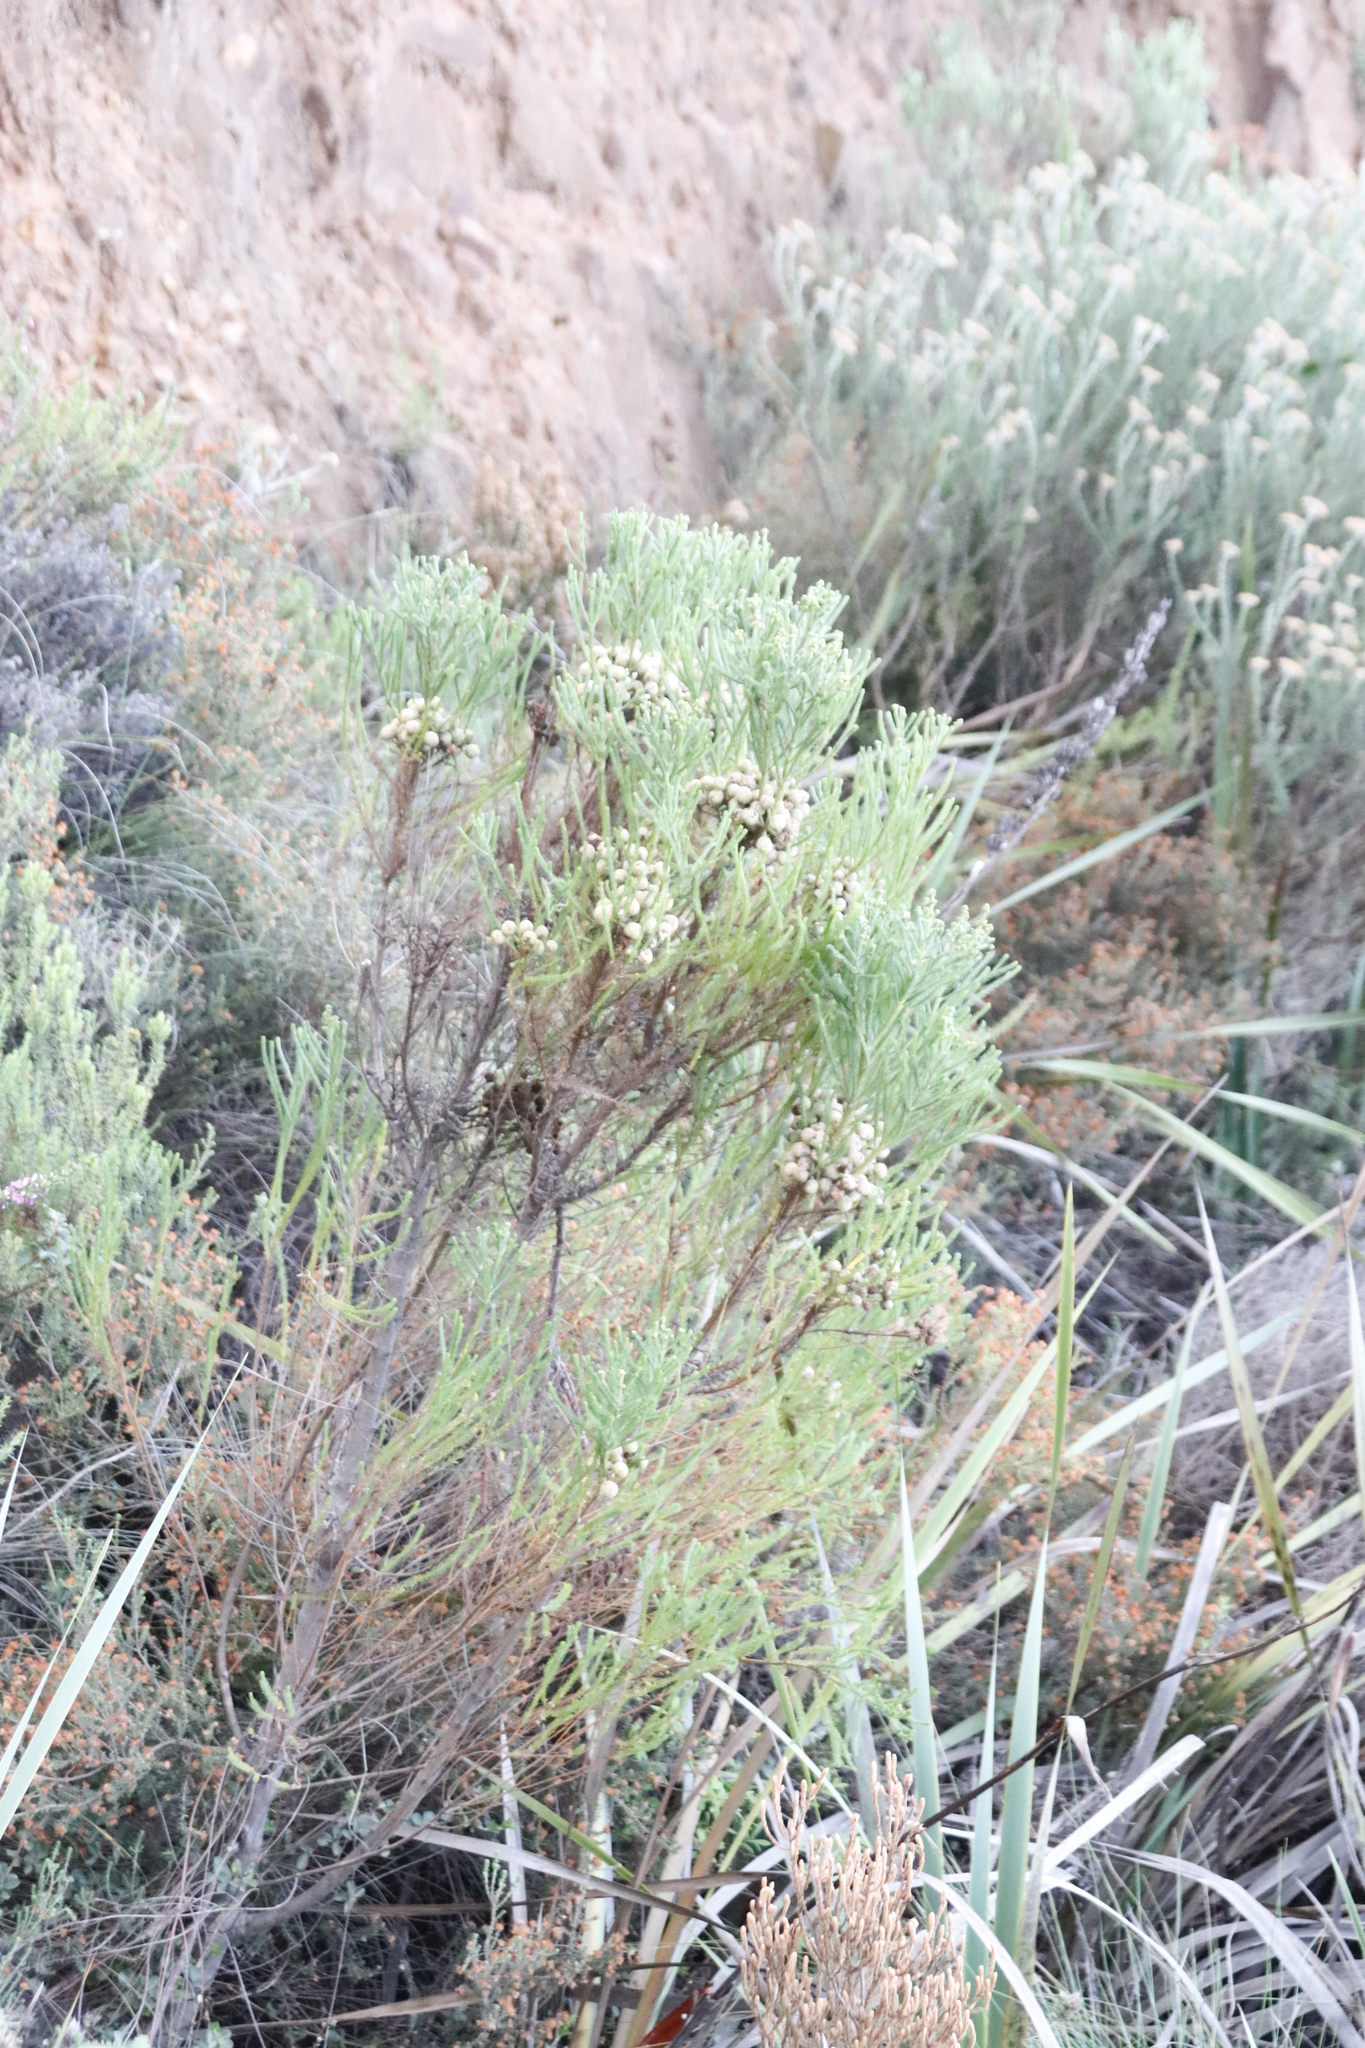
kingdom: Plantae
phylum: Tracheophyta
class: Magnoliopsida
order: Bruniales
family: Bruniaceae
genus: Berzelia
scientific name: Berzelia lanuginosa
